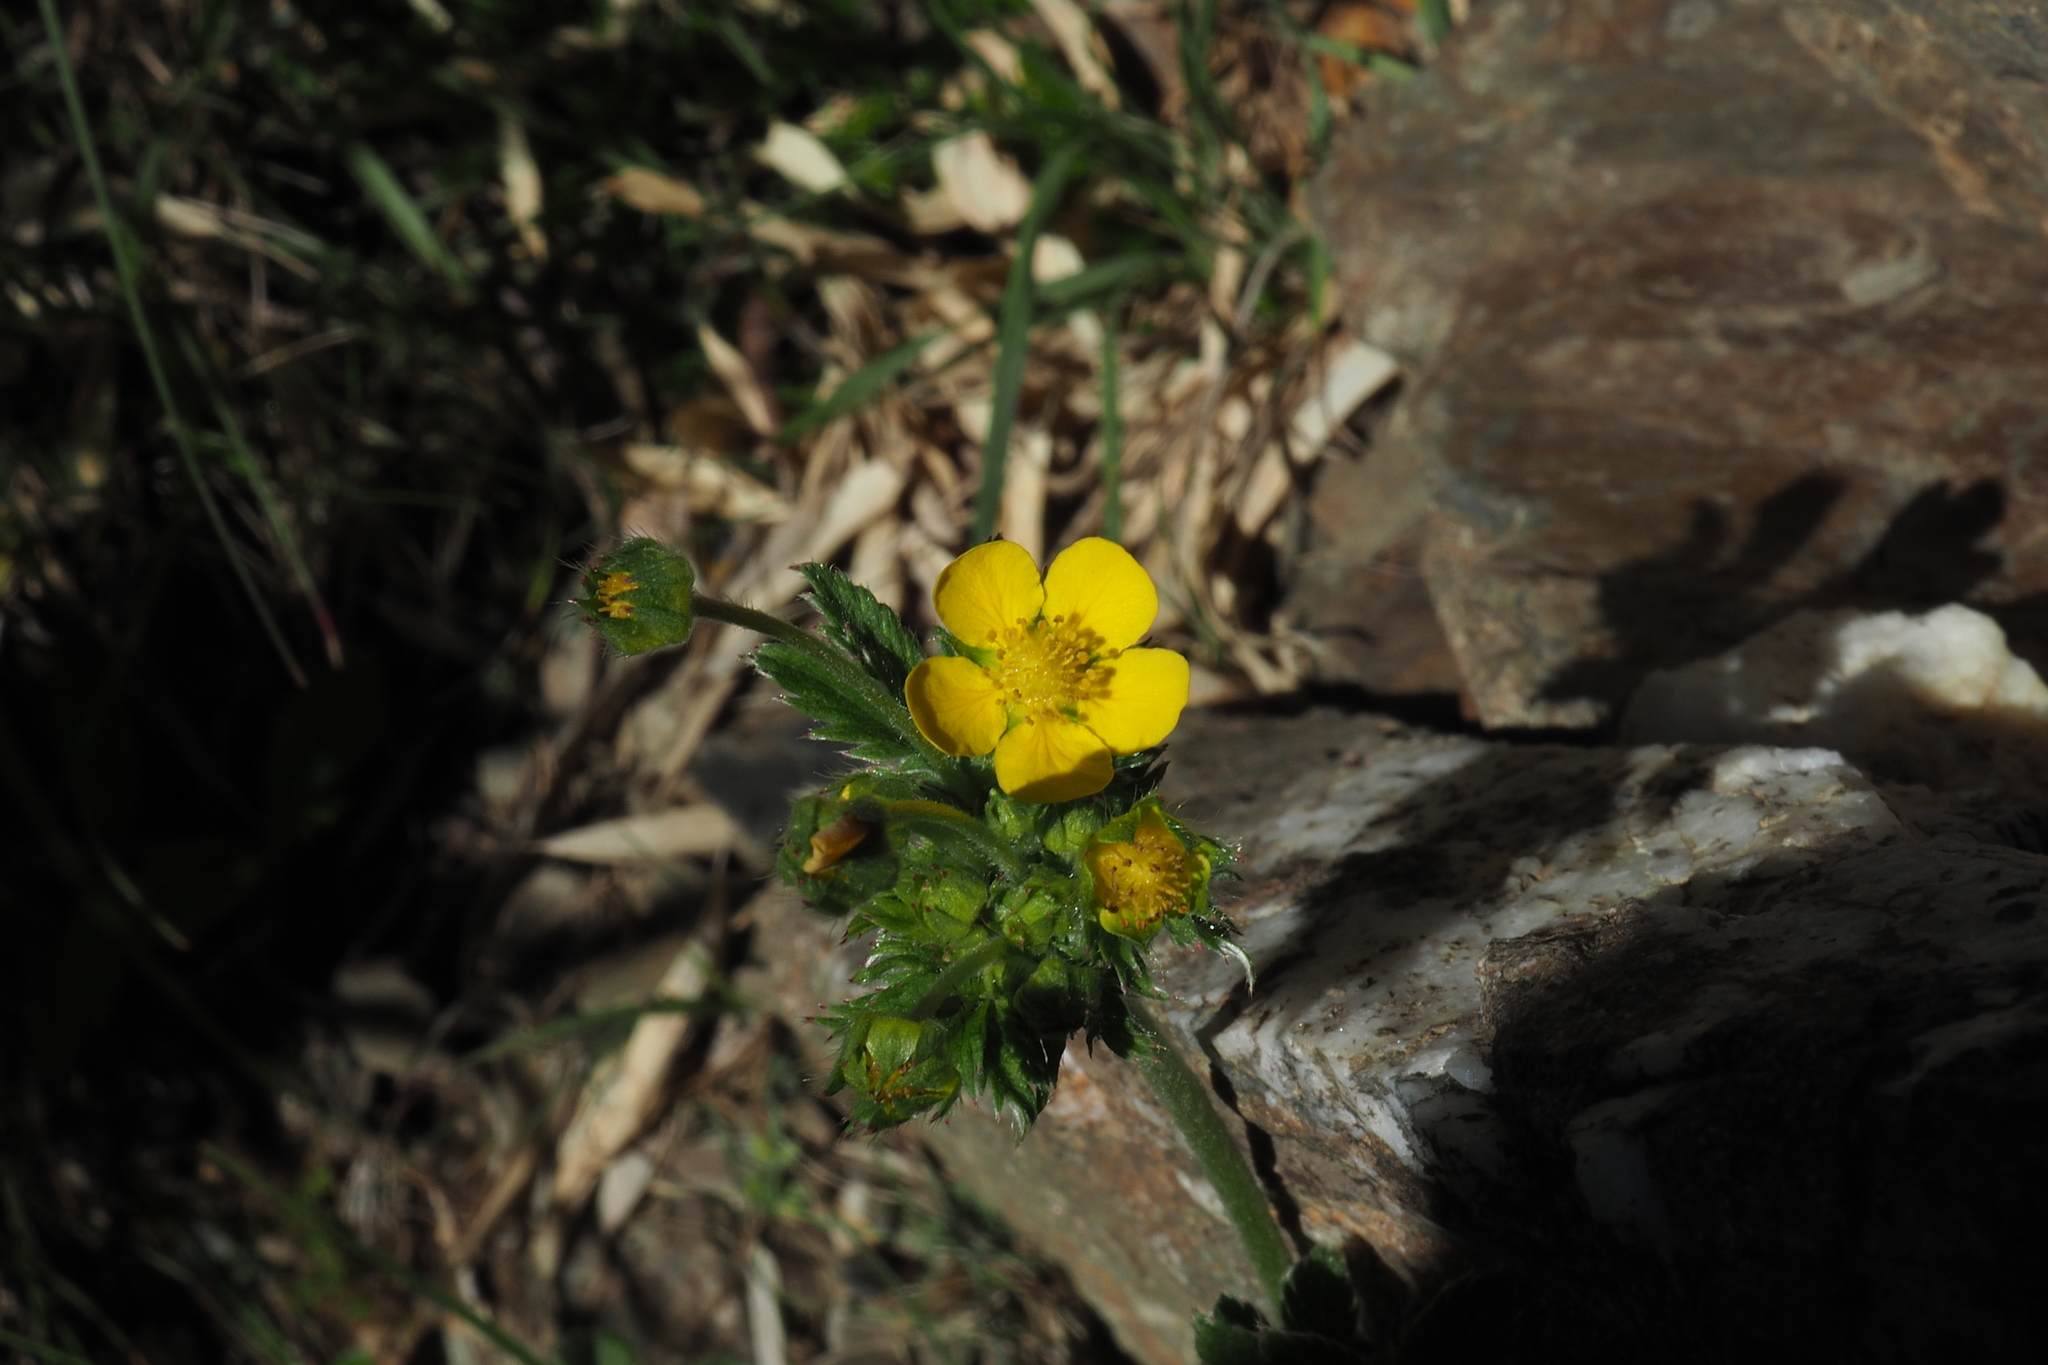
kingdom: Plantae
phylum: Tracheophyta
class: Magnoliopsida
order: Rosales
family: Rosaceae
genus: Argentina
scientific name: Argentina leuconota
